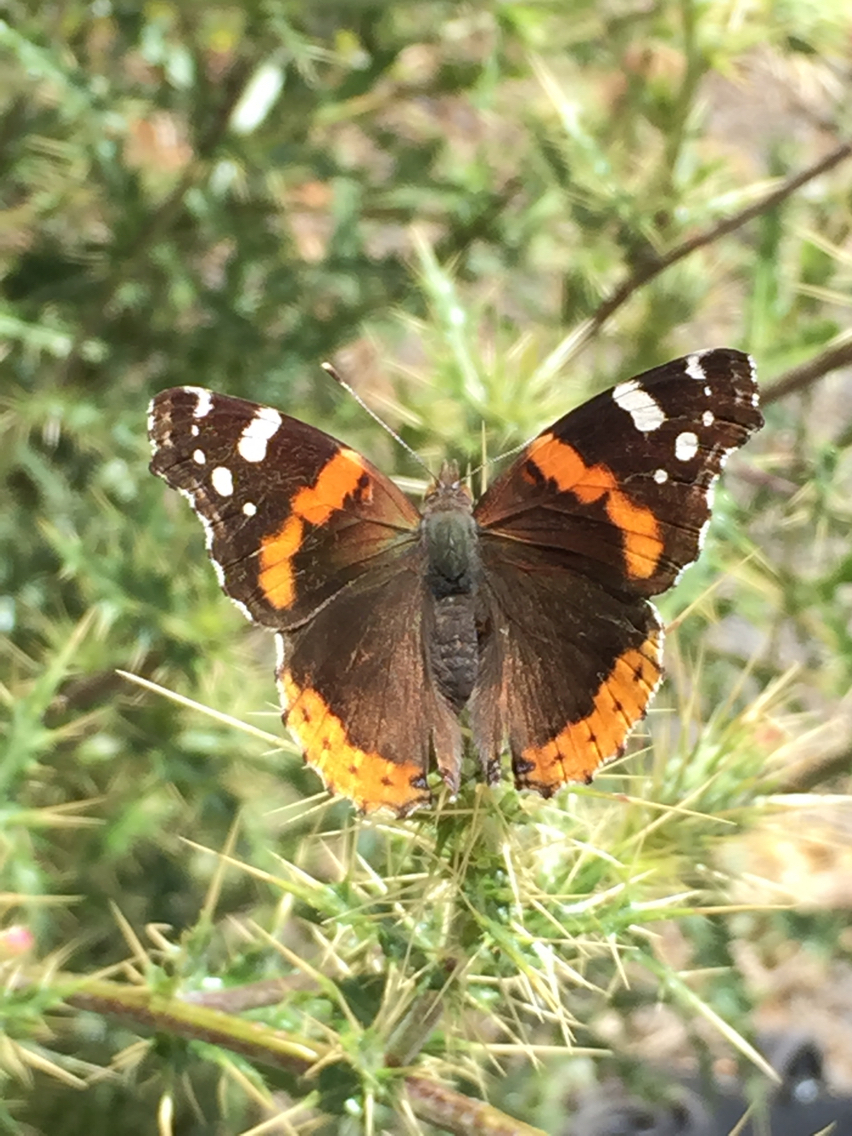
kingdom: Animalia
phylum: Arthropoda
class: Insecta
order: Lepidoptera
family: Nymphalidae
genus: Vanessa
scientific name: Vanessa atalanta
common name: Red admiral
